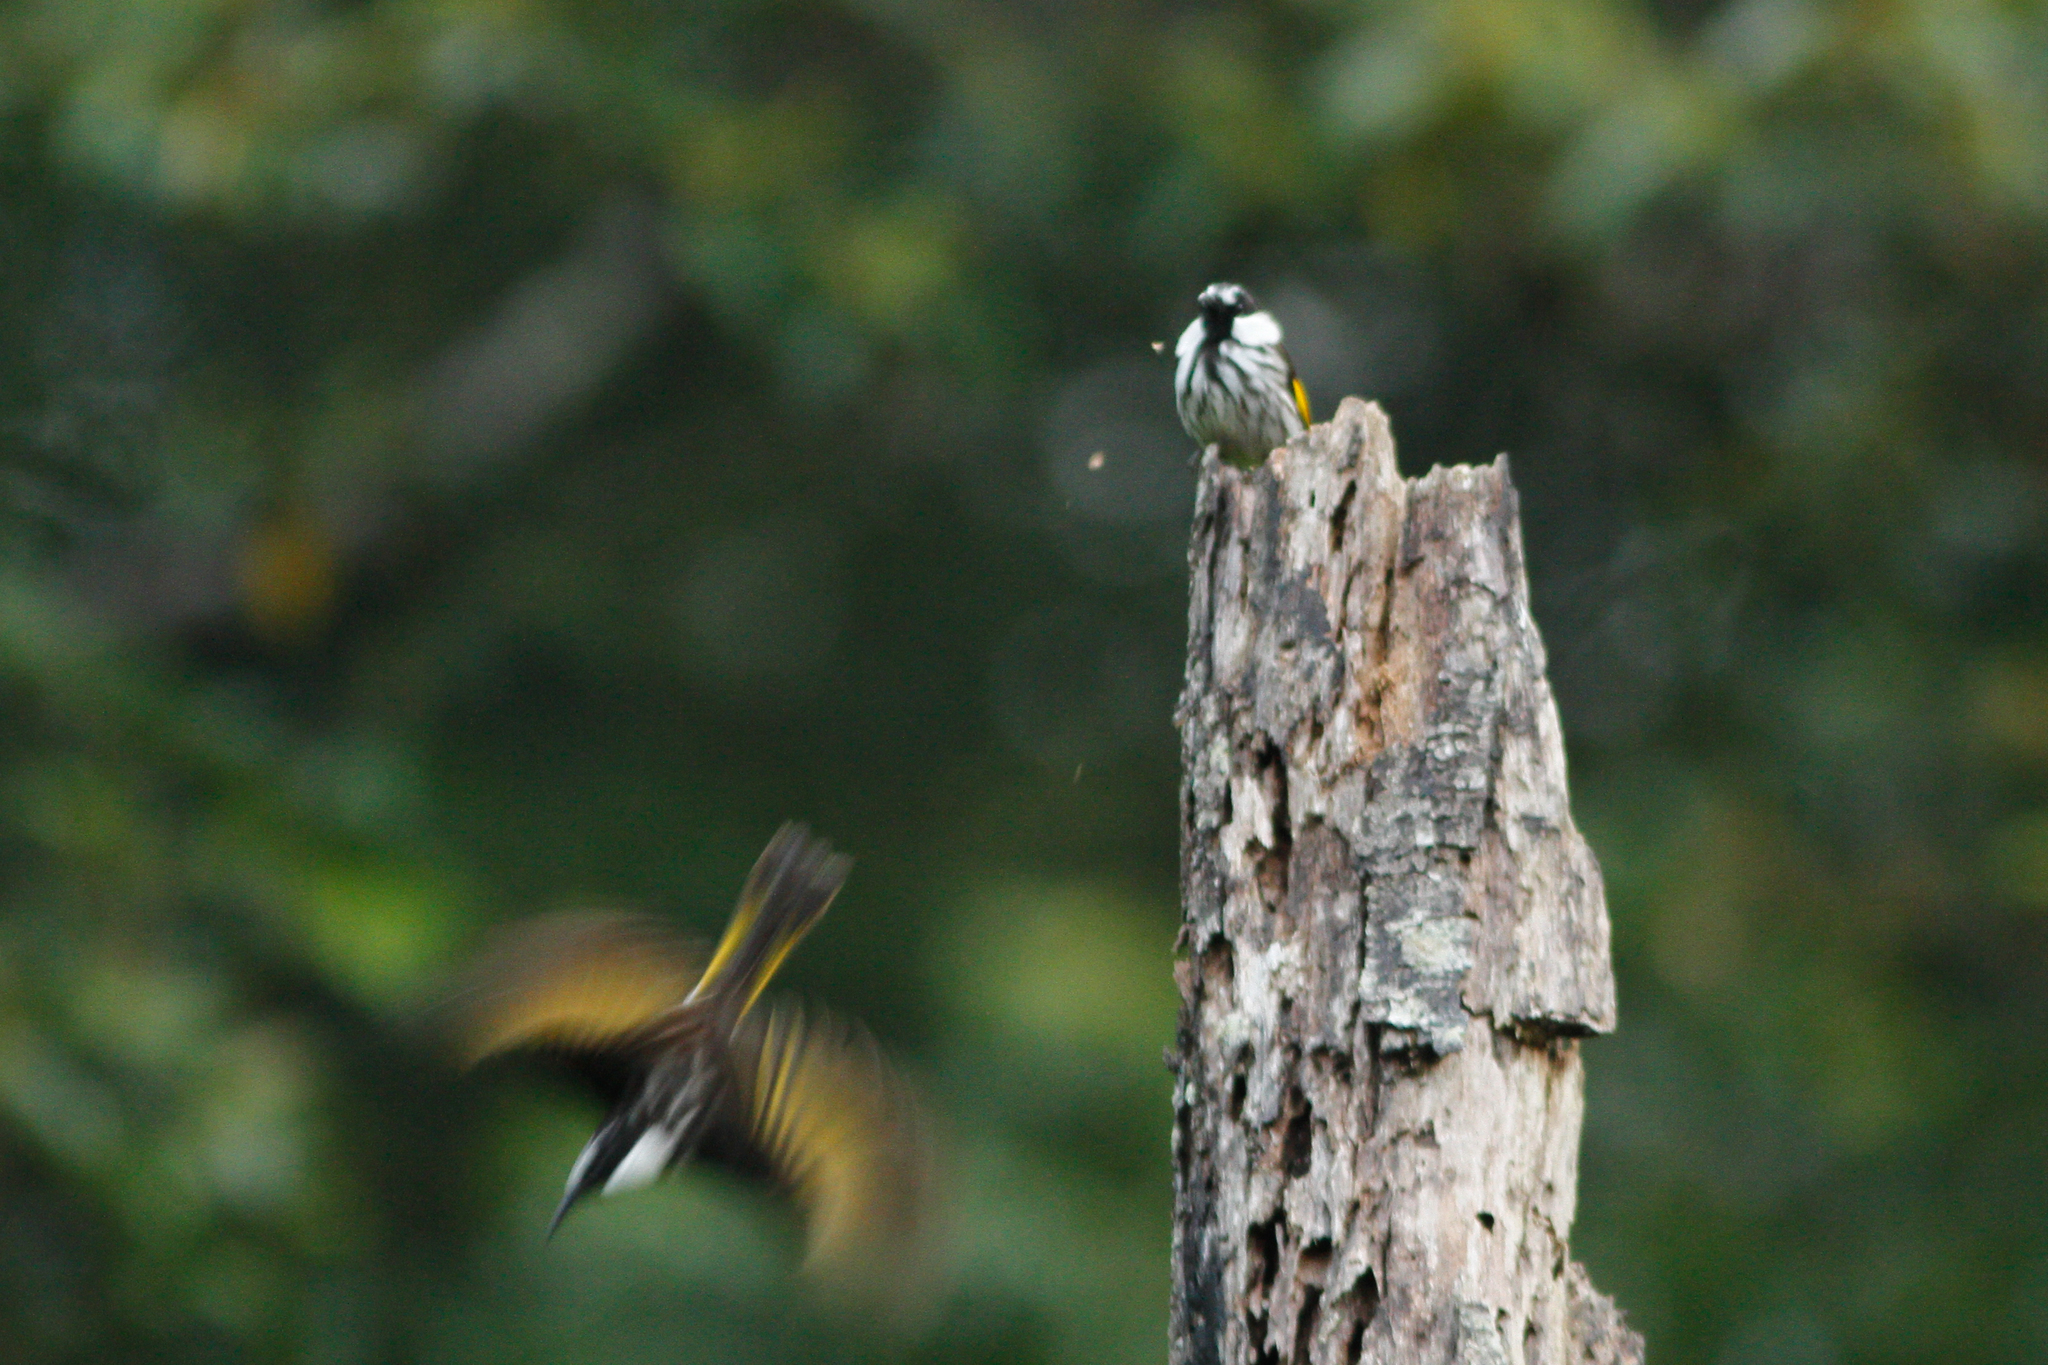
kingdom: Animalia
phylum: Chordata
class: Aves
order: Passeriformes
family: Meliphagidae
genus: Phylidonyris
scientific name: Phylidonyris niger
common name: White-cheeked honeyeater
